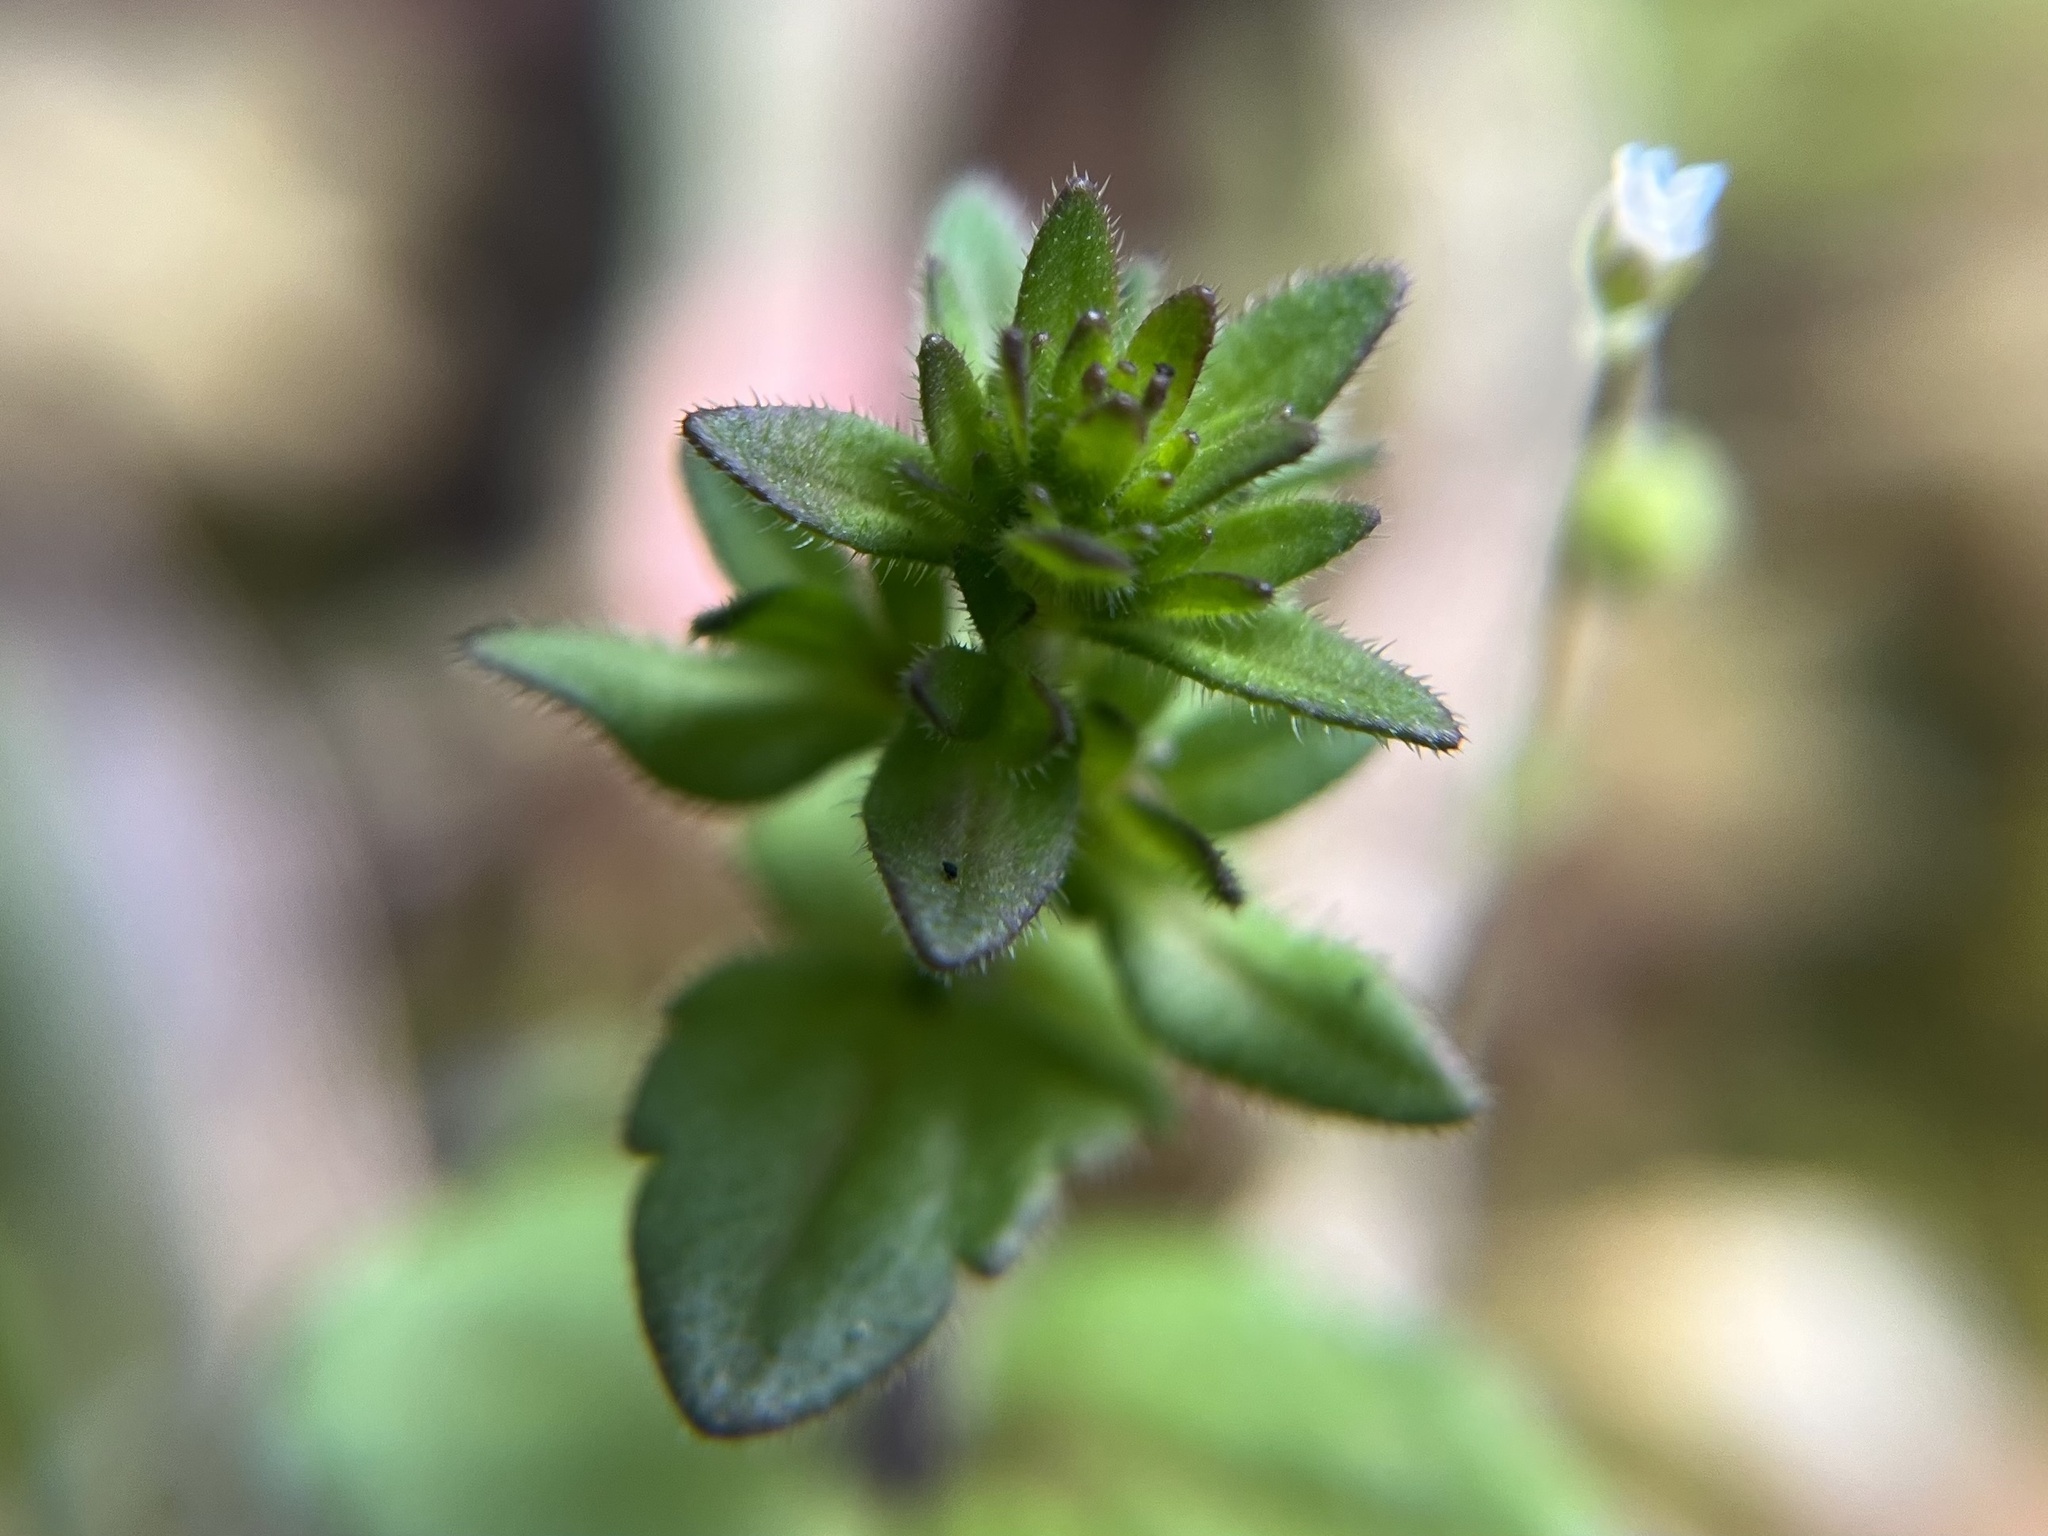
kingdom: Plantae
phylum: Tracheophyta
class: Magnoliopsida
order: Lamiales
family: Plantaginaceae
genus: Veronica
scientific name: Veronica arvensis
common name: Corn speedwell
